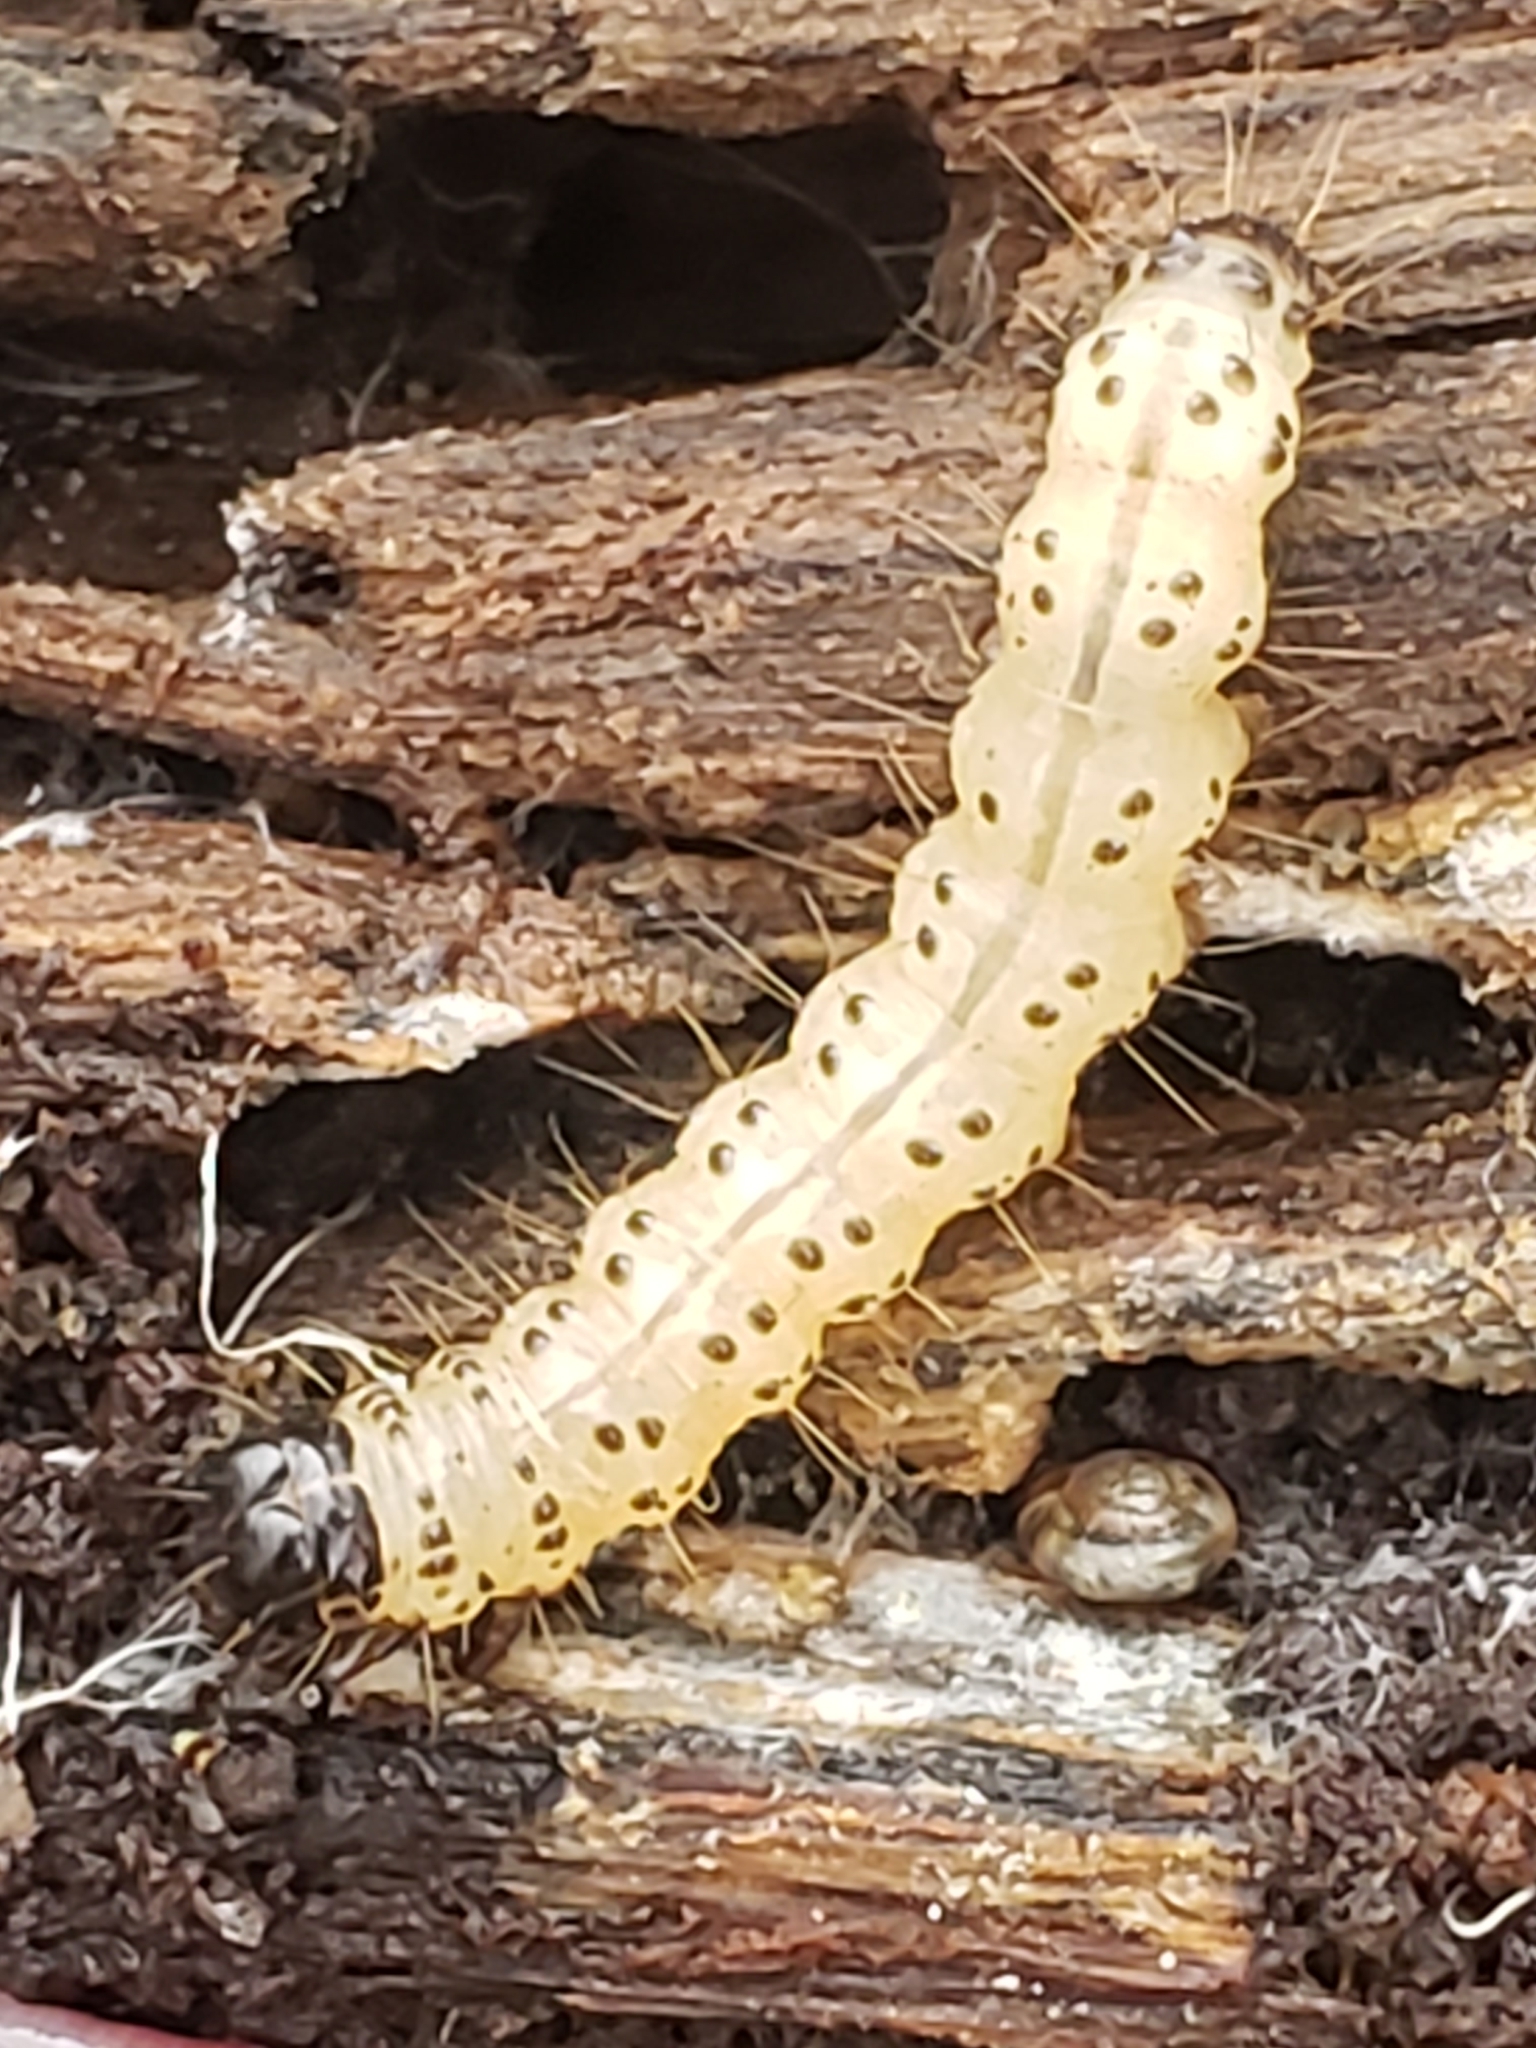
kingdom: Animalia
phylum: Arthropoda
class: Insecta
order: Lepidoptera
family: Erebidae
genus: Scolecocampa
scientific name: Scolecocampa liburna
